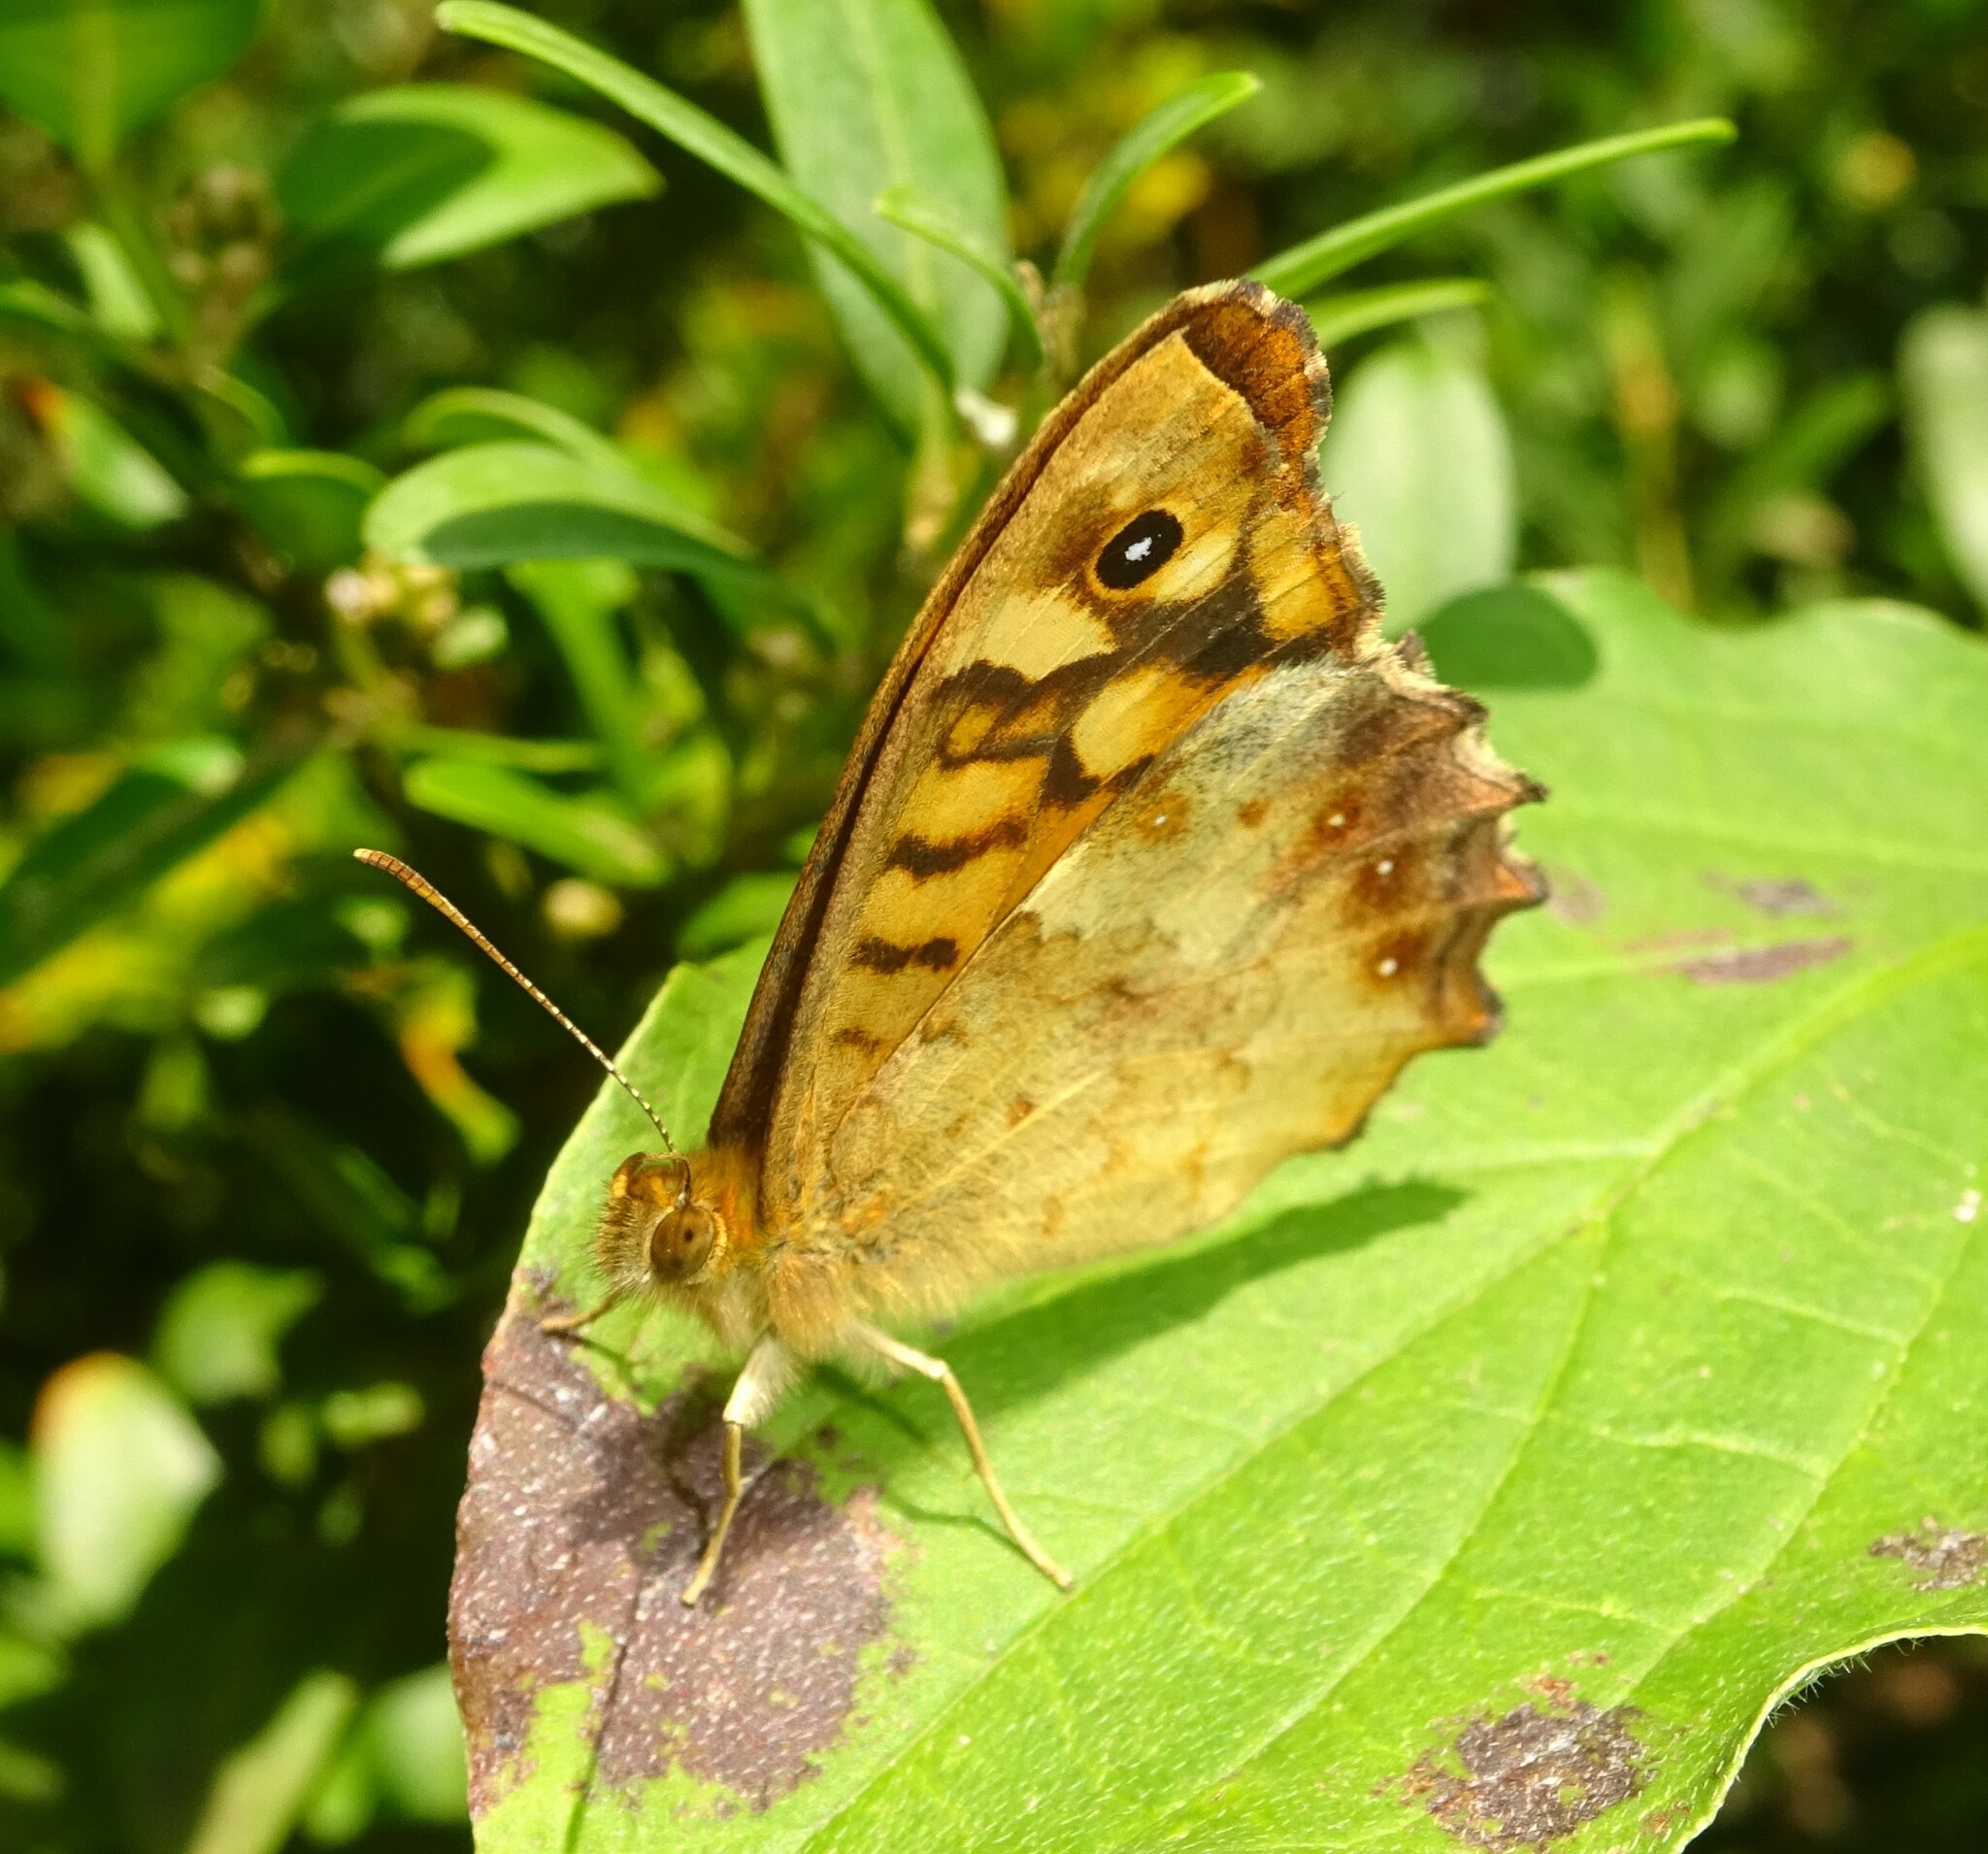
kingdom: Animalia
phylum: Arthropoda
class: Insecta
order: Lepidoptera
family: Nymphalidae
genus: Pararge
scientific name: Pararge aegeria
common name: Speckled wood
